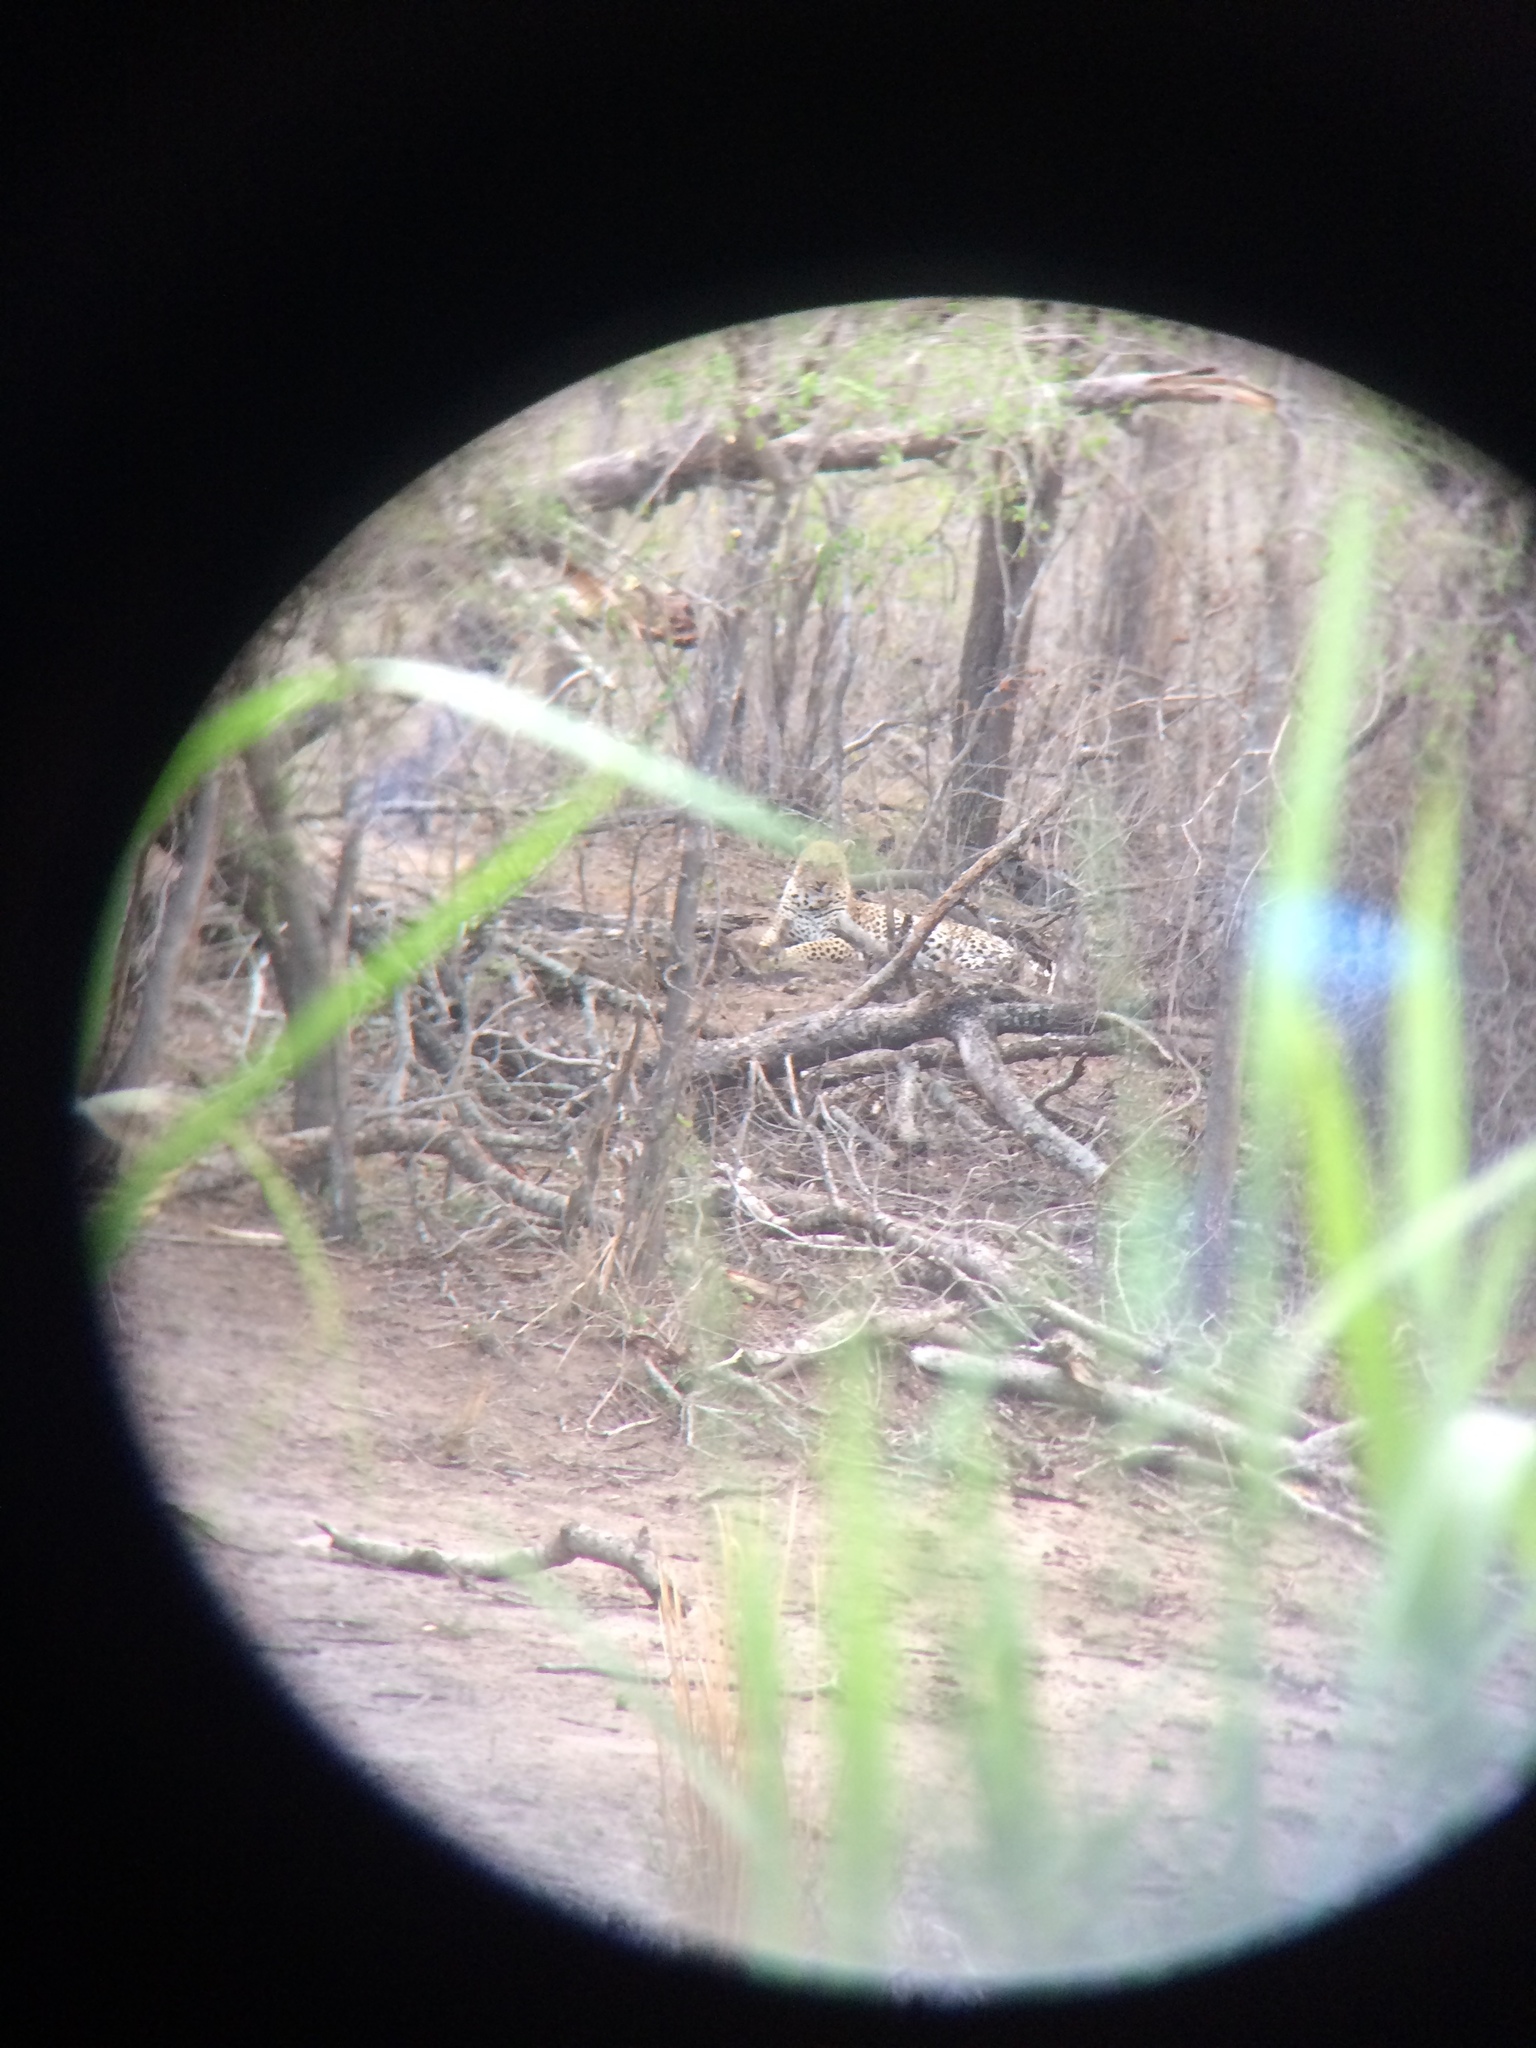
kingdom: Animalia
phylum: Chordata
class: Mammalia
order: Carnivora
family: Felidae
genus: Panthera
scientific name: Panthera pardus
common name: Leopard
